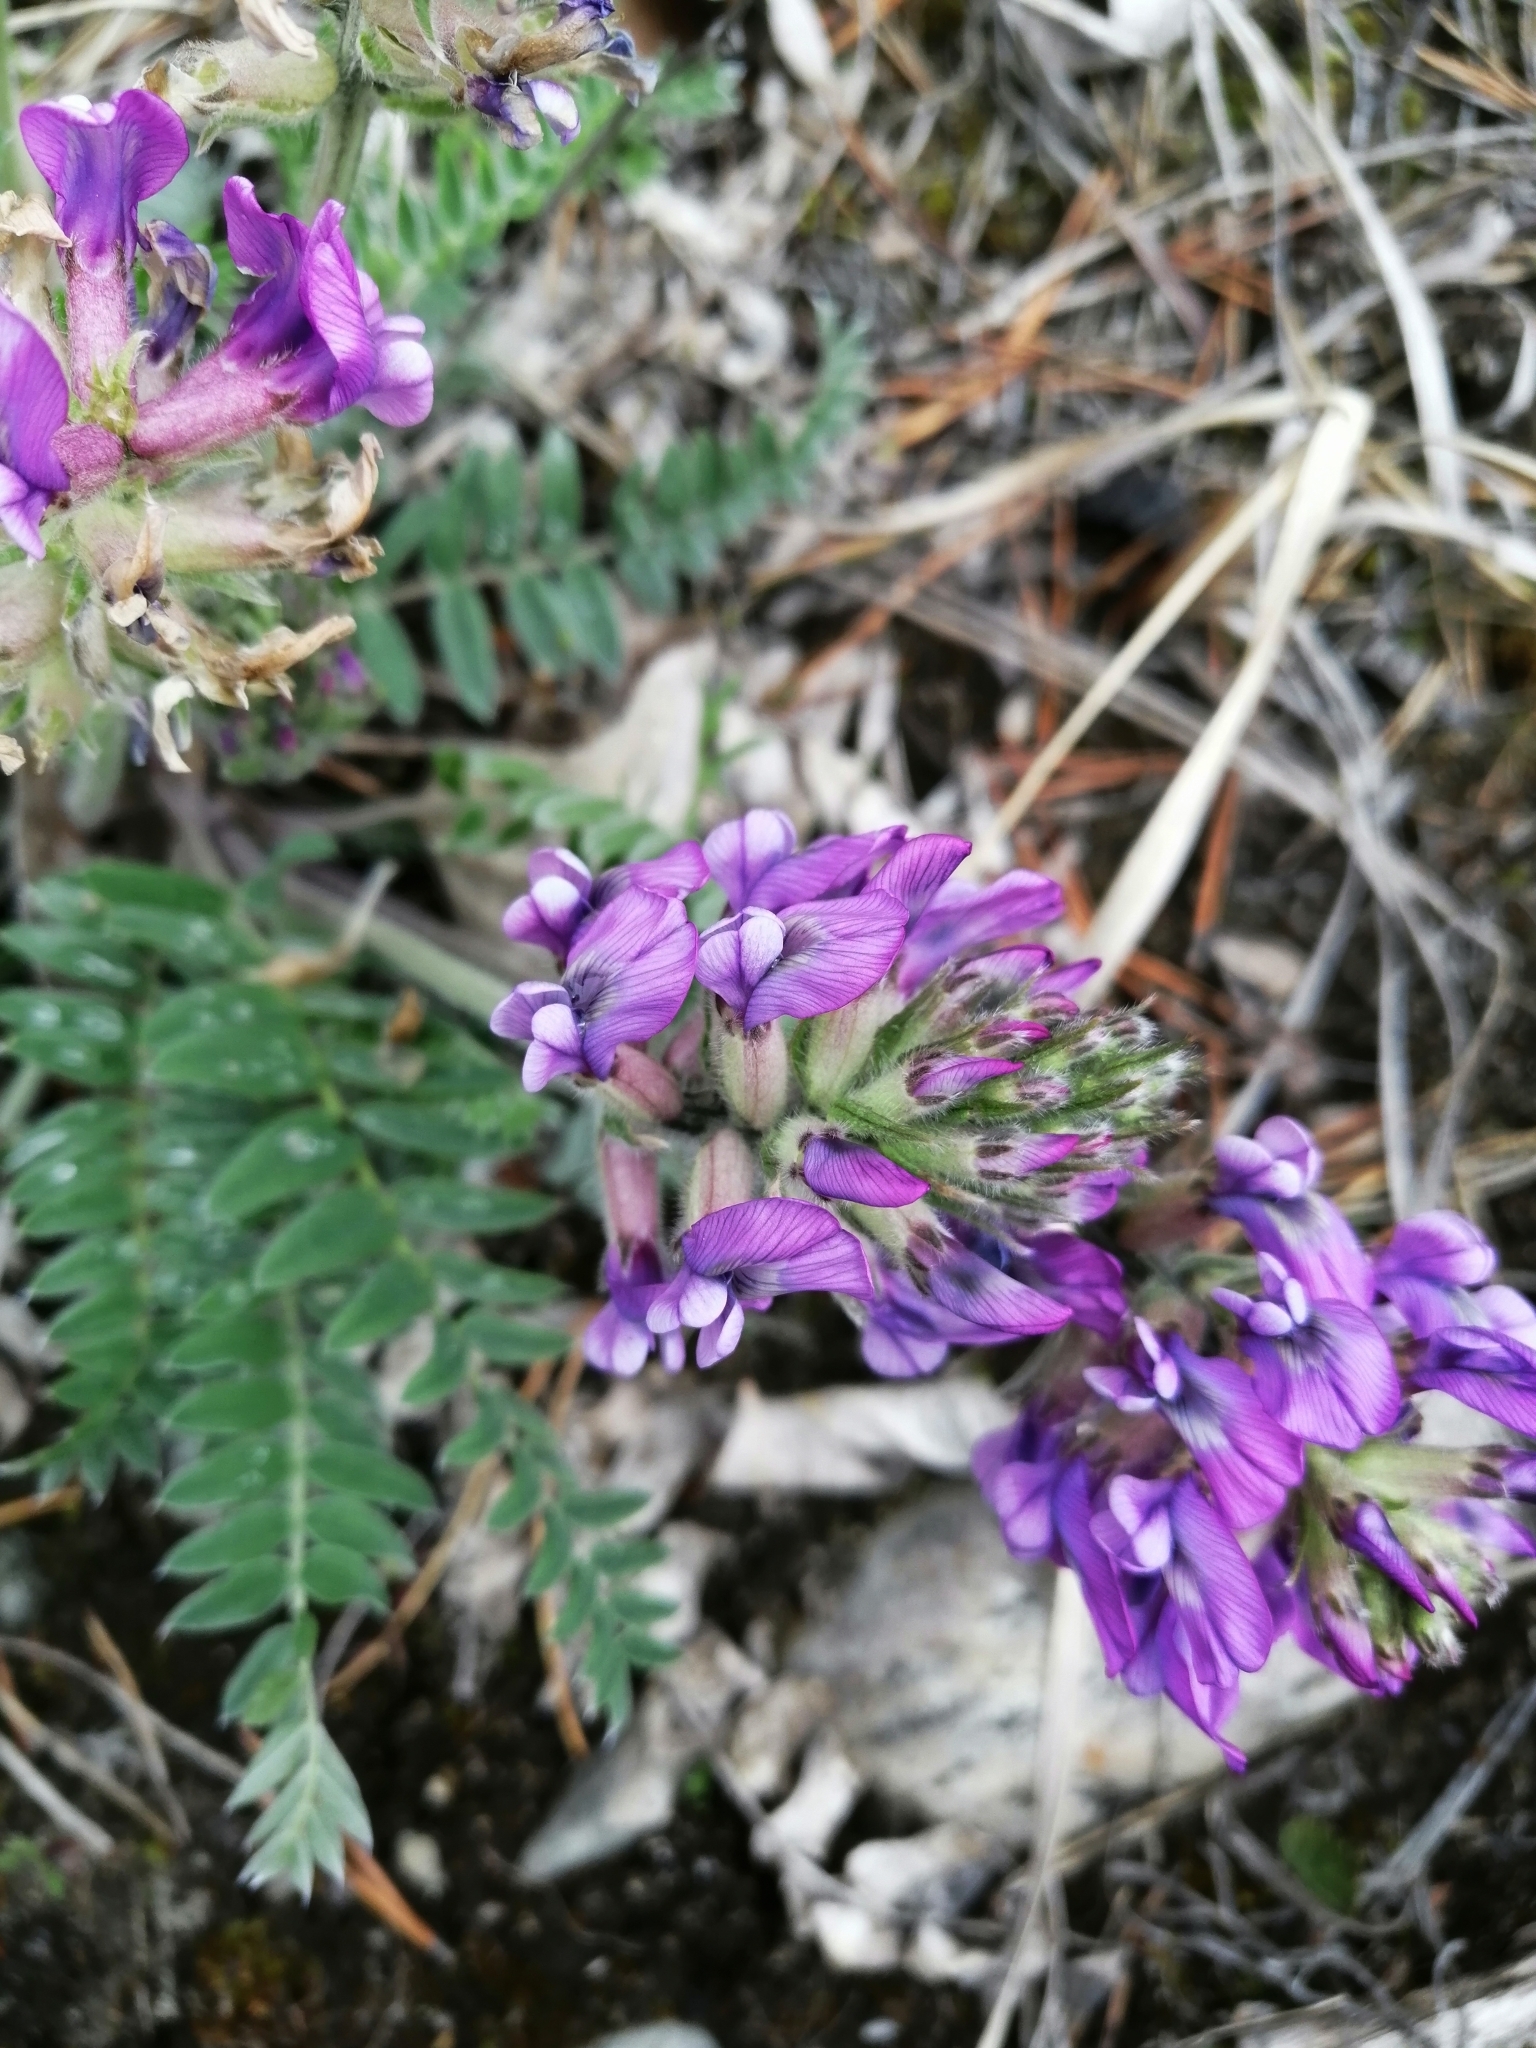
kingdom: Plantae
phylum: Tracheophyta
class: Magnoliopsida
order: Fabales
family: Fabaceae
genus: Oxytropis
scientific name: Oxytropis strobilacea
